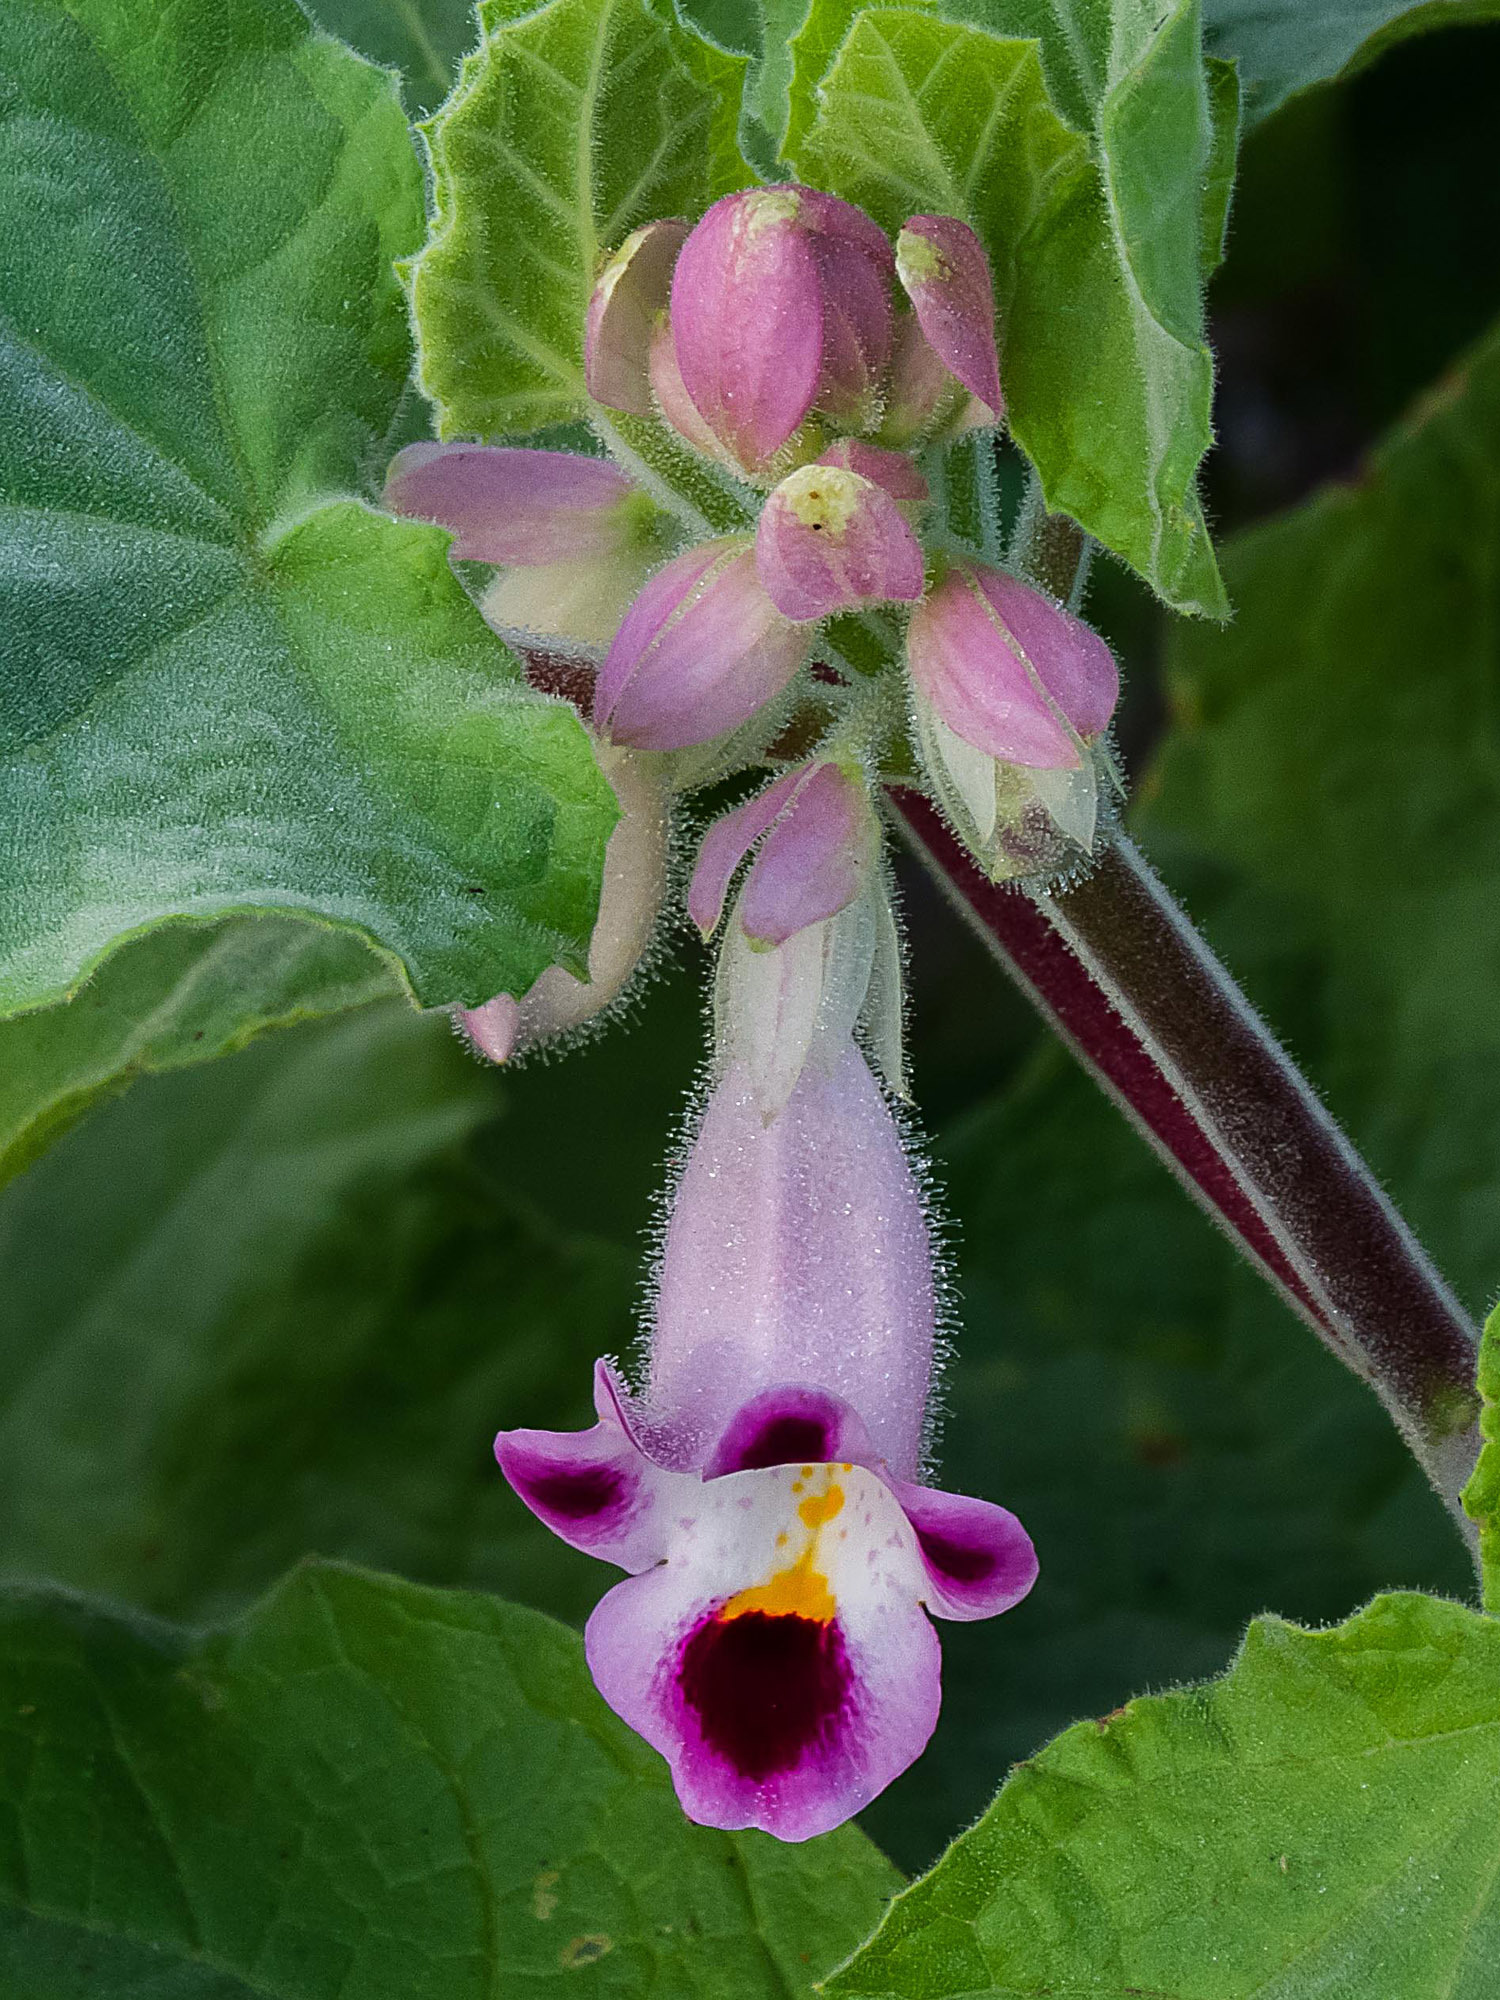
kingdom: Plantae
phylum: Tracheophyta
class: Magnoliopsida
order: Lamiales
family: Martyniaceae
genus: Martynia
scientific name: Martynia annua
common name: Tiger's-claw
